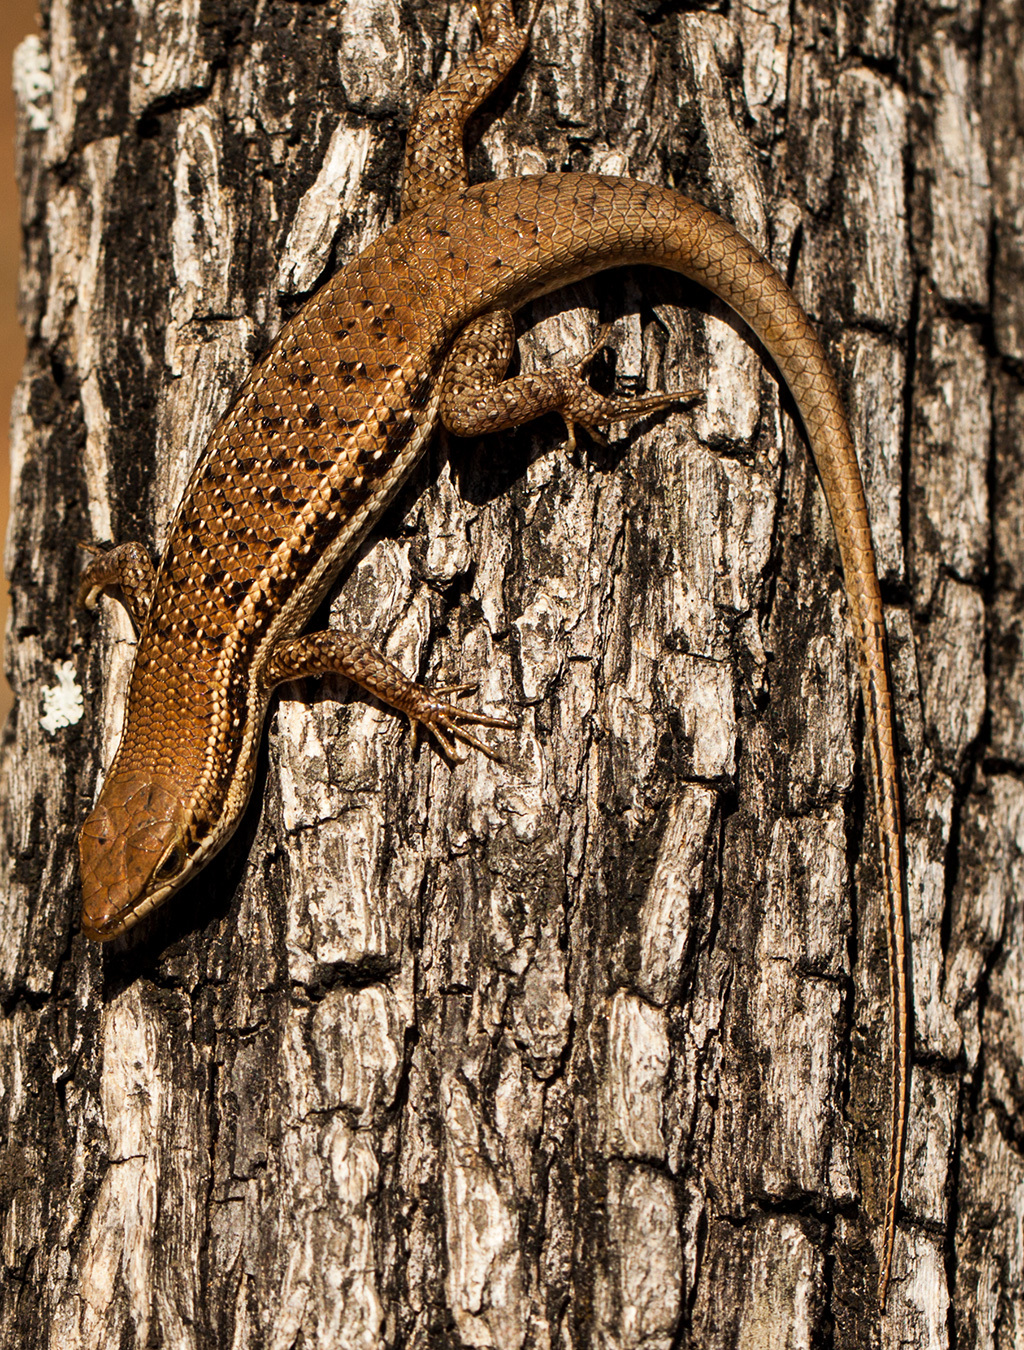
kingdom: Animalia
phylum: Chordata
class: Squamata
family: Scincidae
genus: Trachylepis
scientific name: Trachylepis varia
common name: Eastern variable skink
